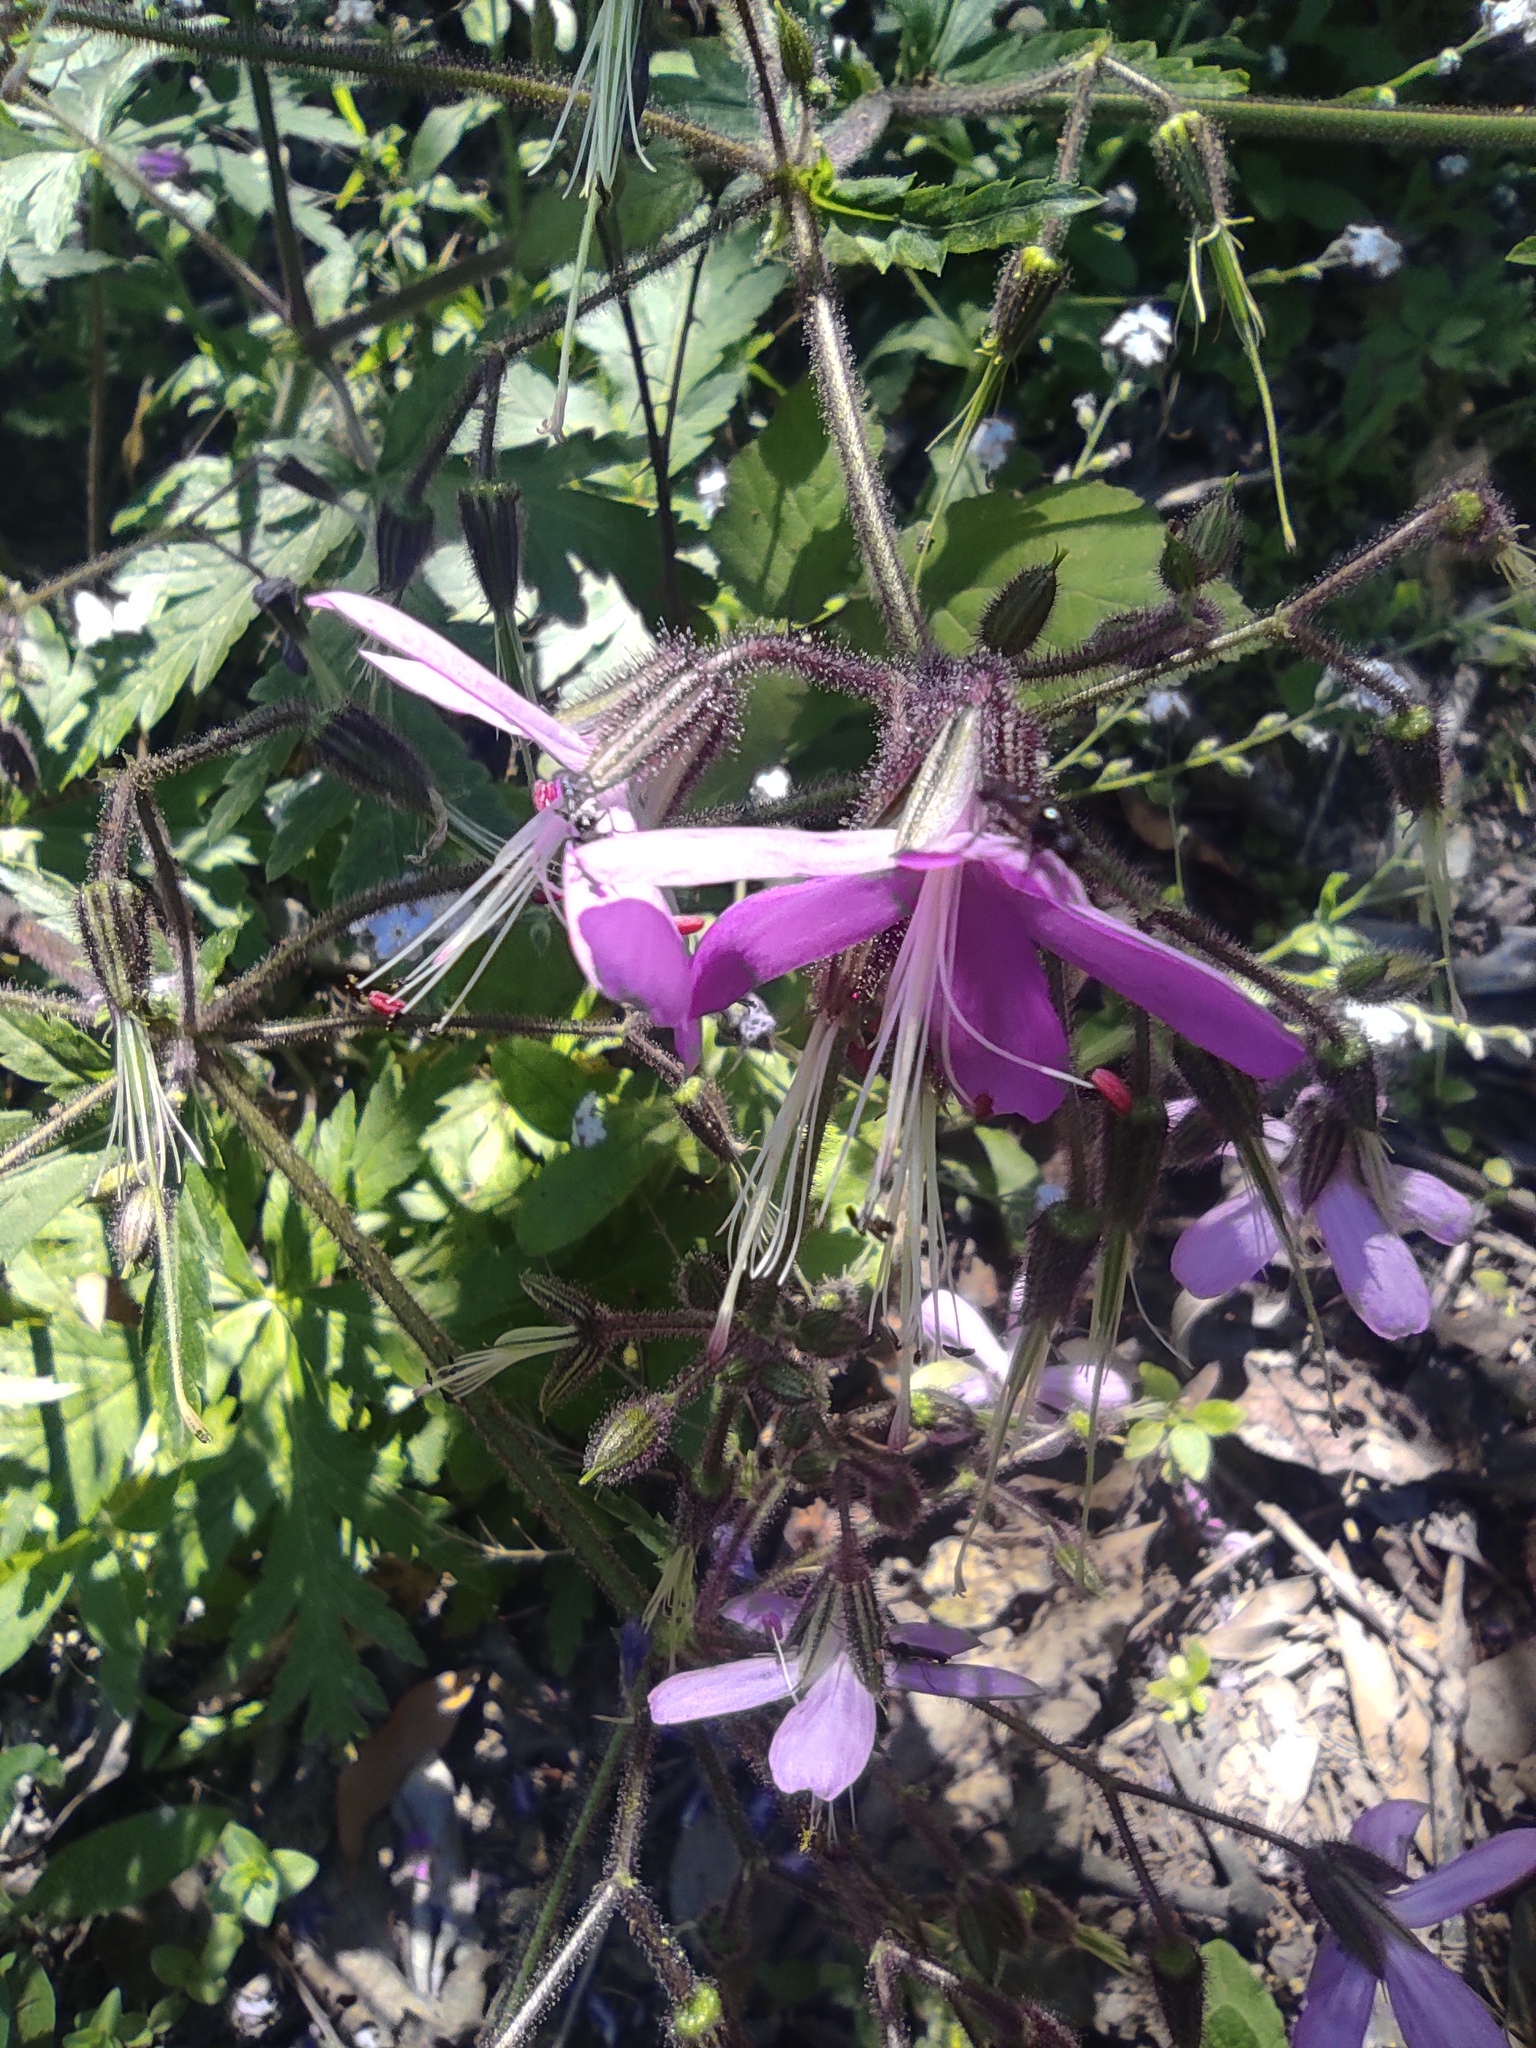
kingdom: Plantae
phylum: Tracheophyta
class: Magnoliopsida
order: Geraniales
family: Geraniaceae
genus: Geranium
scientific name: Geranium reuteri
